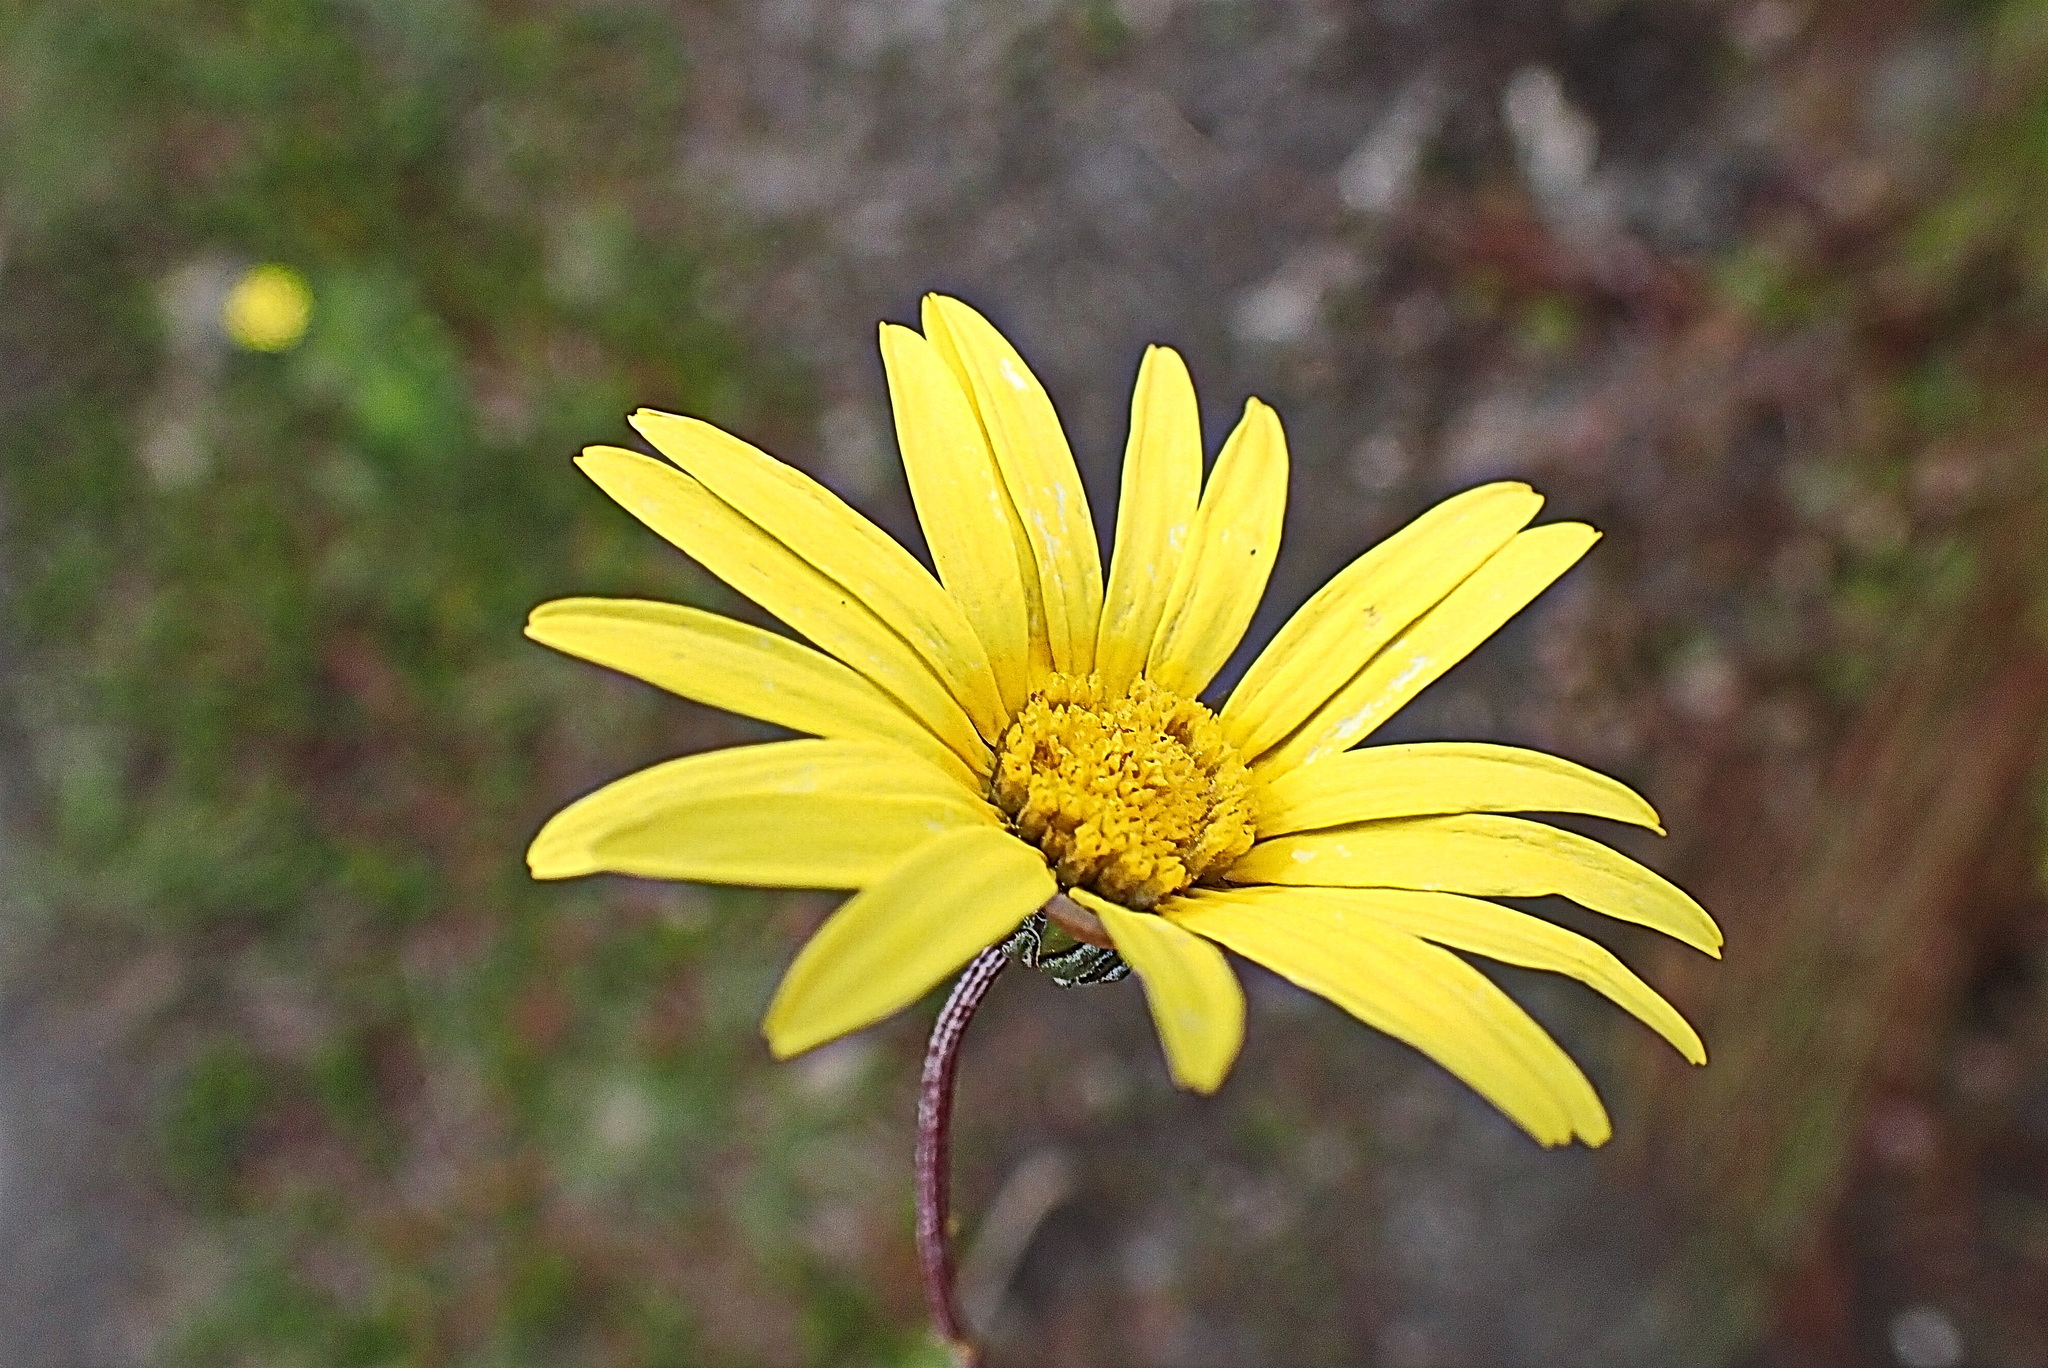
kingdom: Plantae
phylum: Tracheophyta
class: Magnoliopsida
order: Asterales
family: Asteraceae
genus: Ursinia
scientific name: Ursinia paleacea
